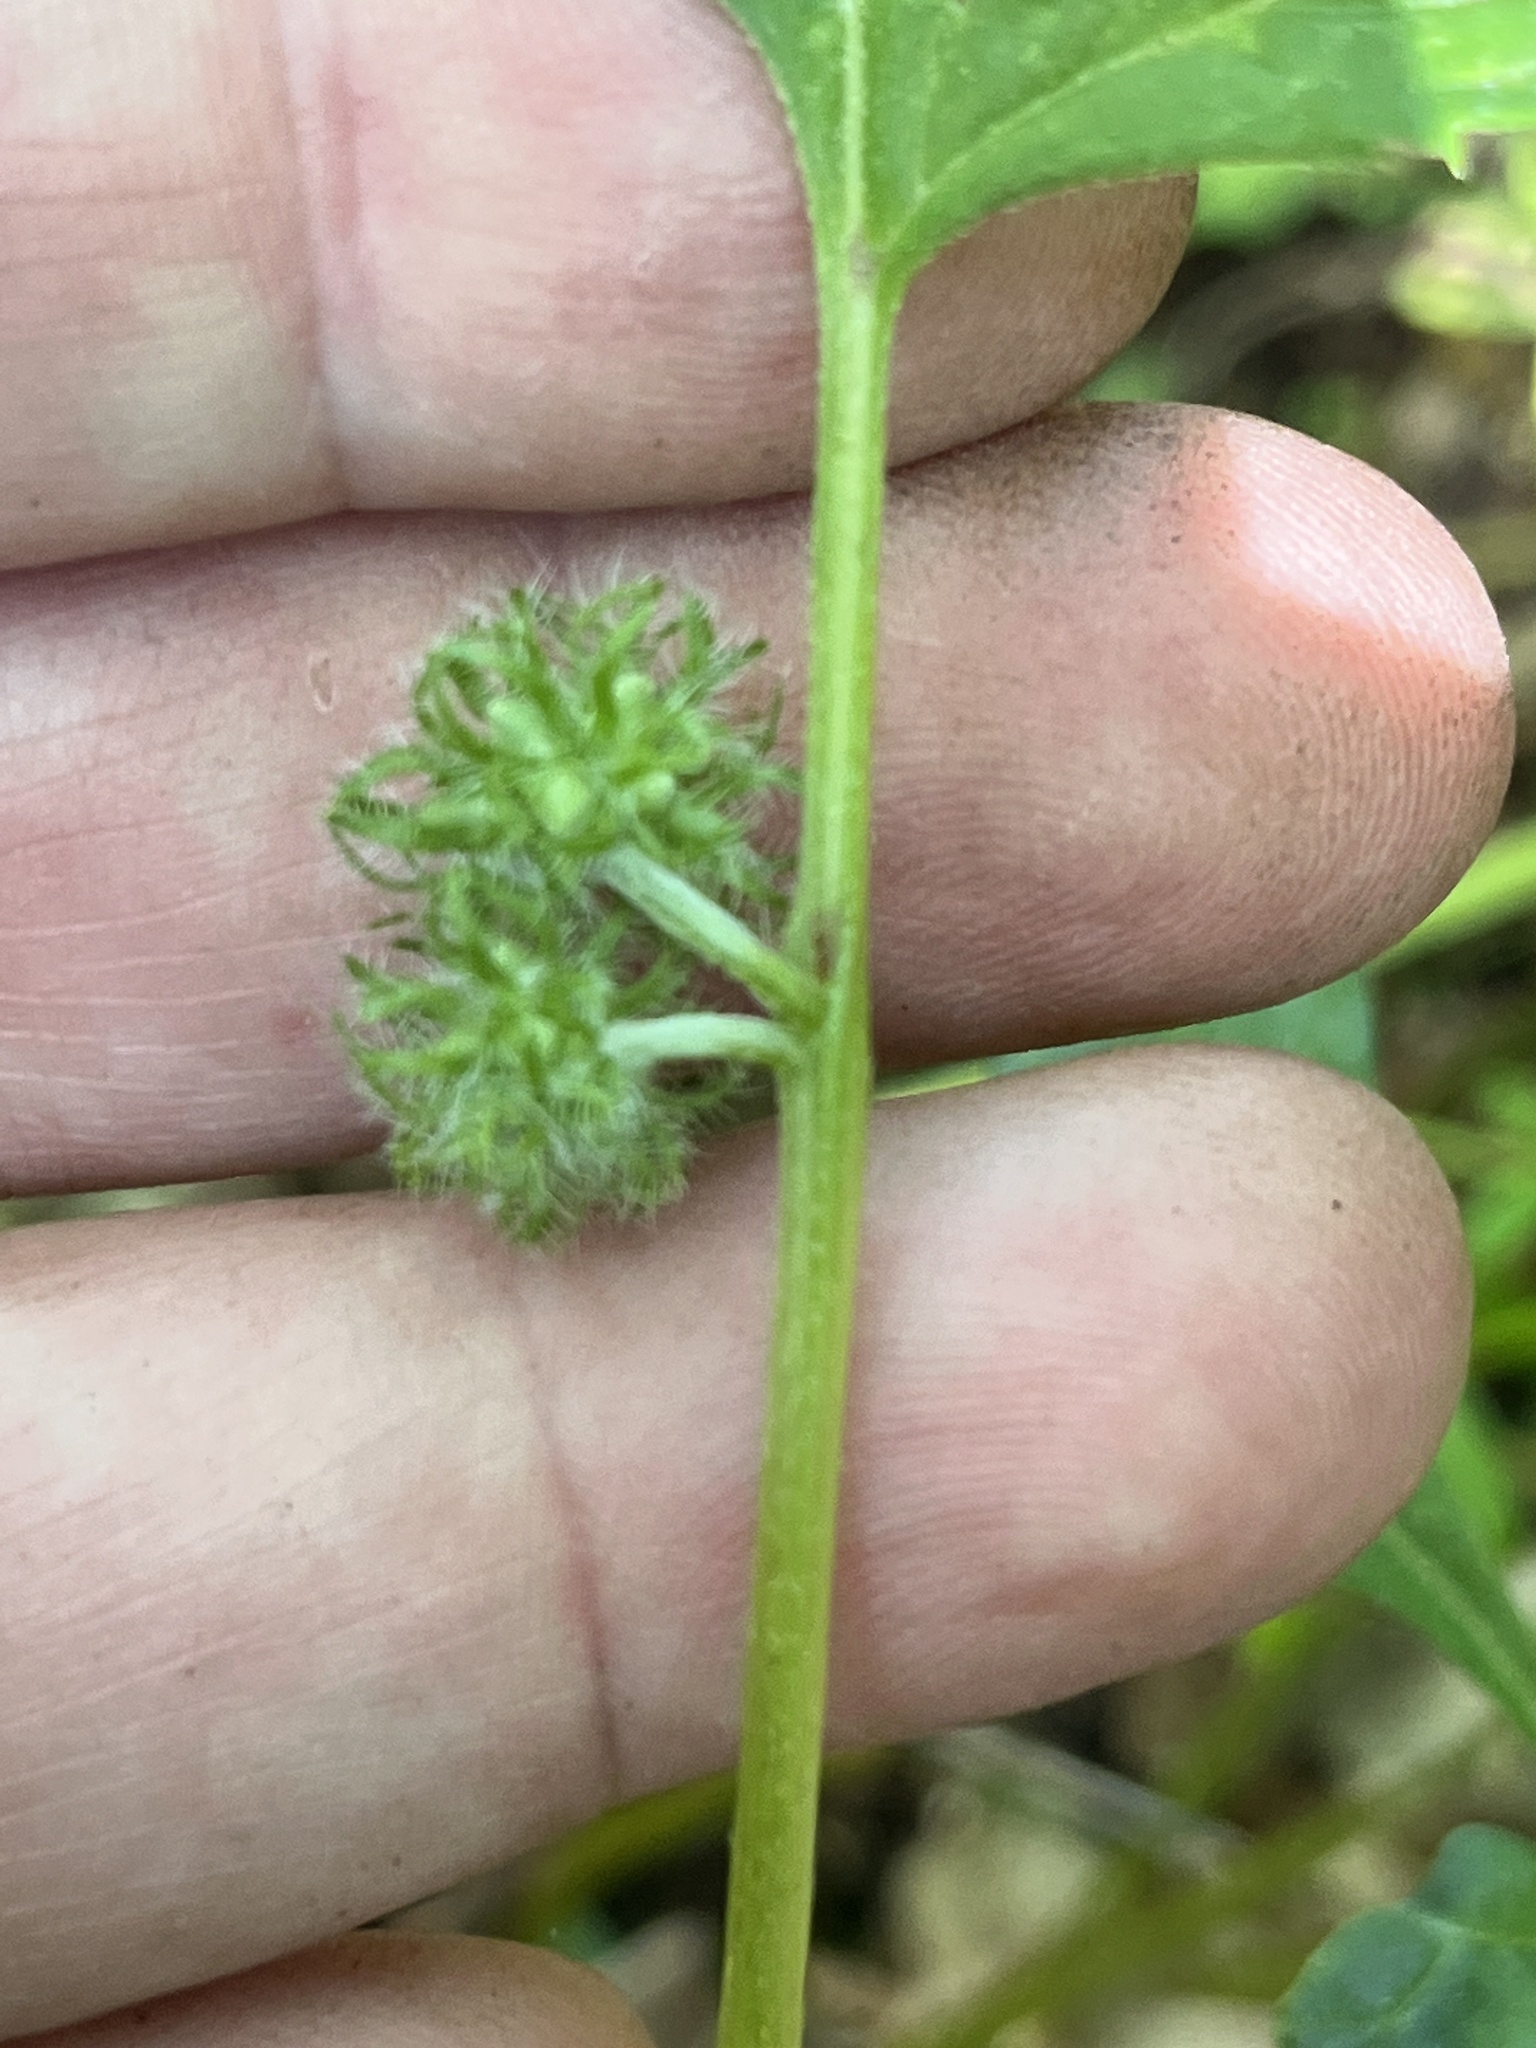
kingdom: Plantae
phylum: Tracheophyta
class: Magnoliopsida
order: Boraginales
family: Hydrophyllaceae
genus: Hydrophyllum
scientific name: Hydrophyllum virginianum
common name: Virginia waterleaf
